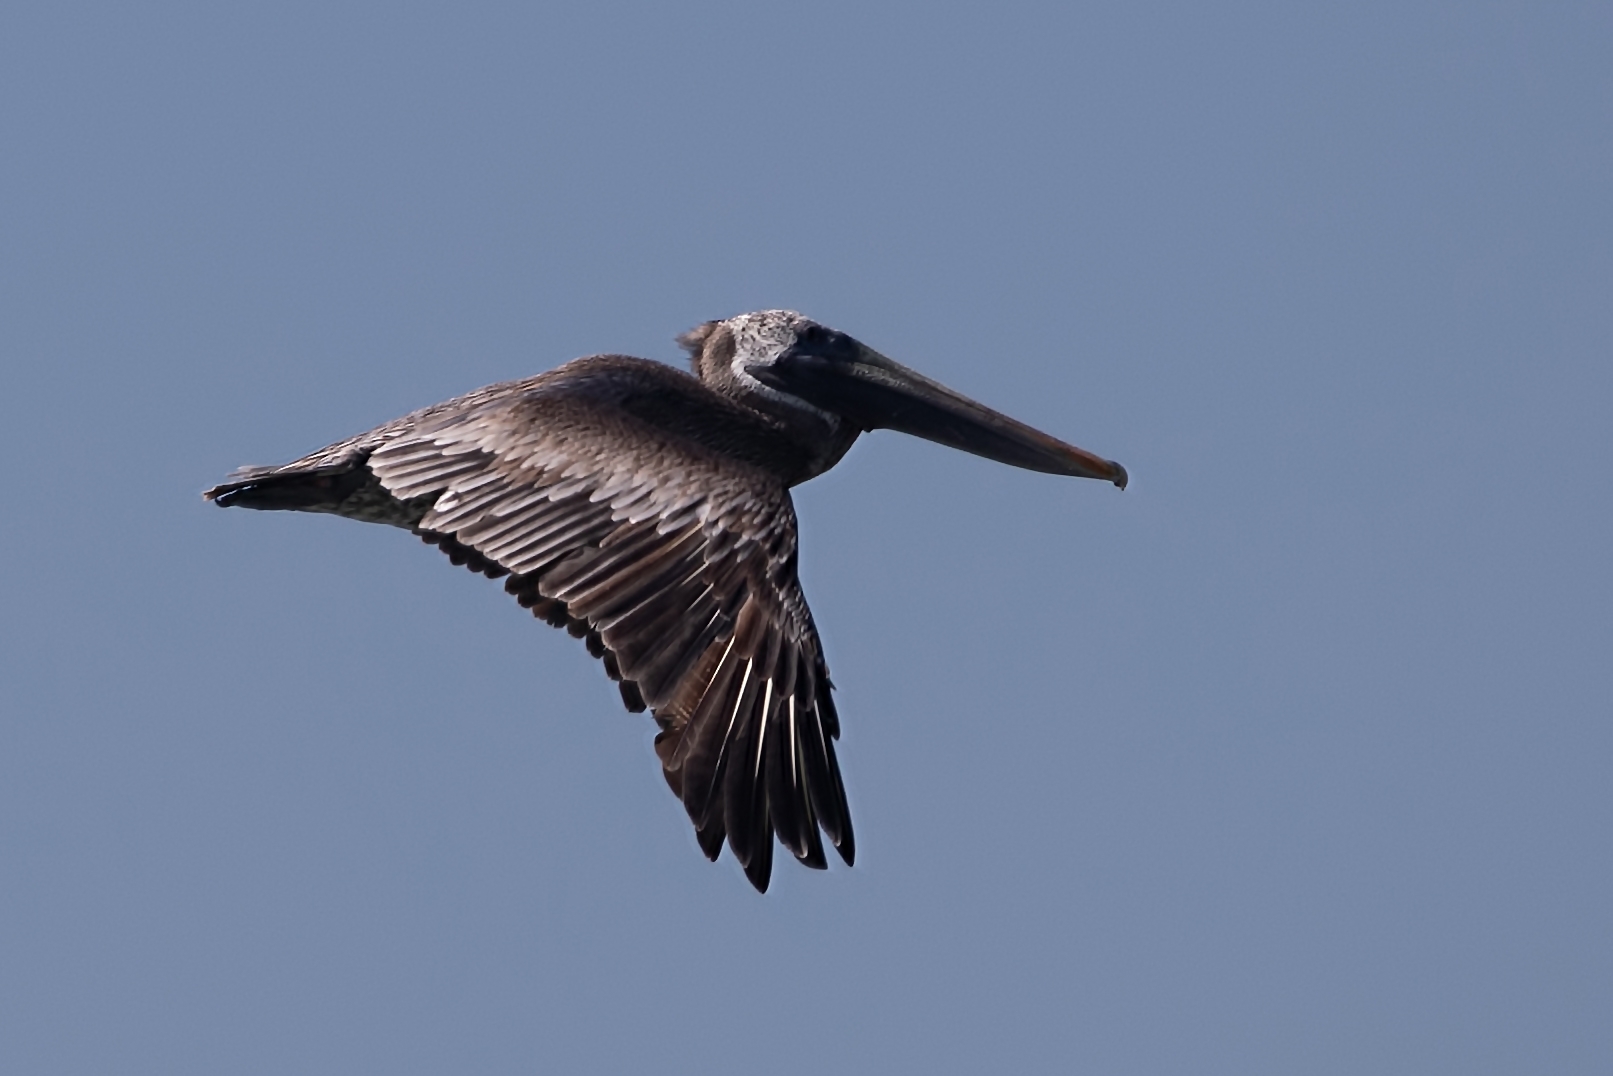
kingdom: Animalia
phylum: Chordata
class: Aves
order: Pelecaniformes
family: Pelecanidae
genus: Pelecanus
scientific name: Pelecanus occidentalis
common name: Brown pelican
